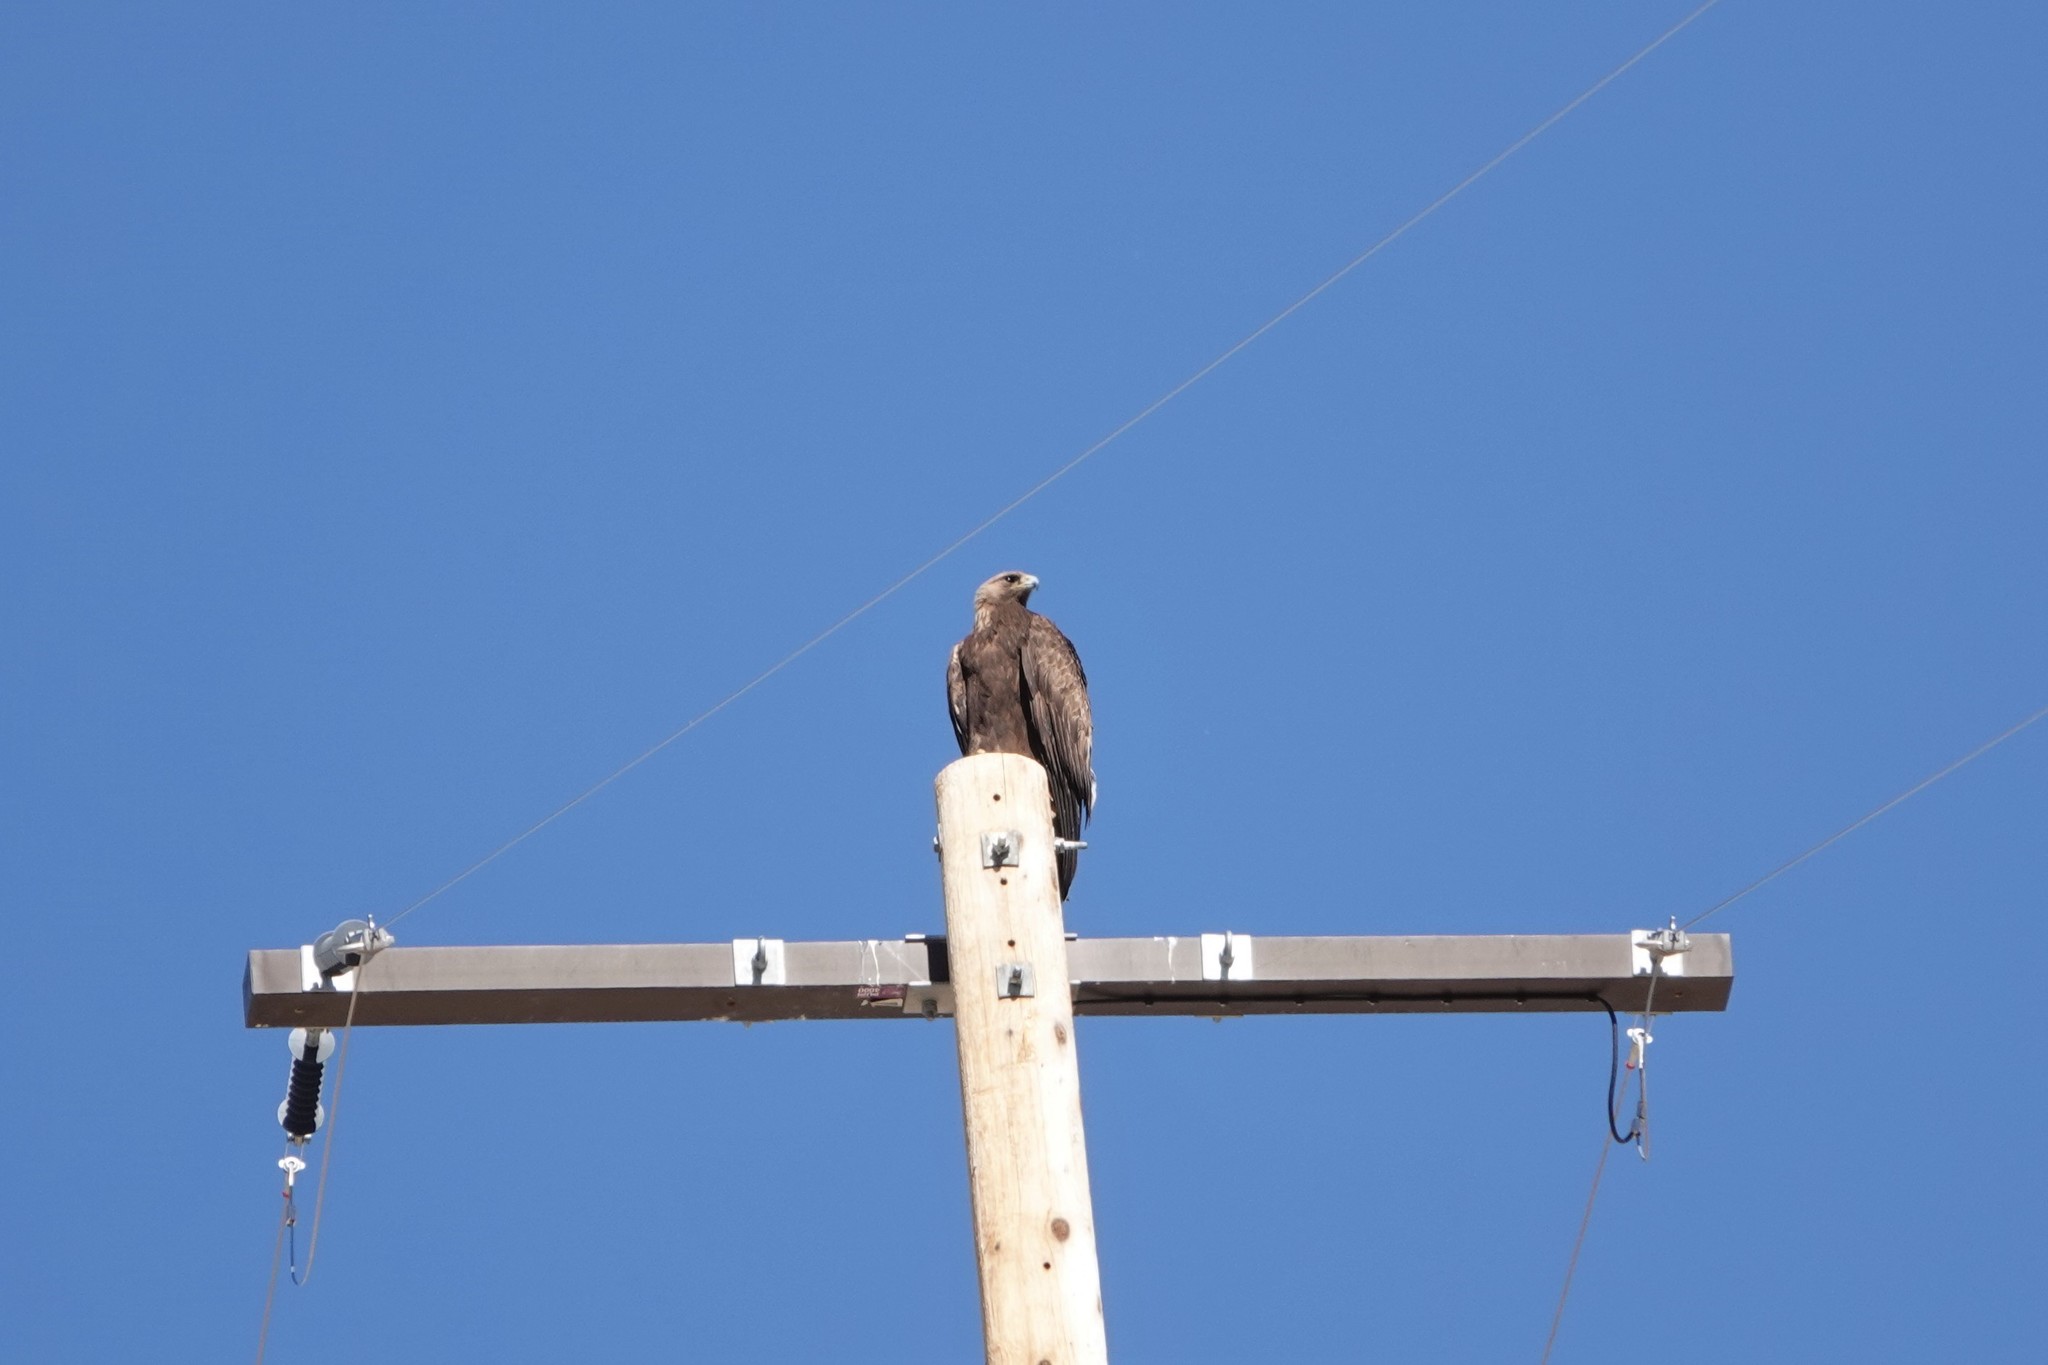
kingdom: Animalia
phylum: Chordata
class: Aves
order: Accipitriformes
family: Accipitridae
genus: Aquila
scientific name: Aquila chrysaetos
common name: Golden eagle
